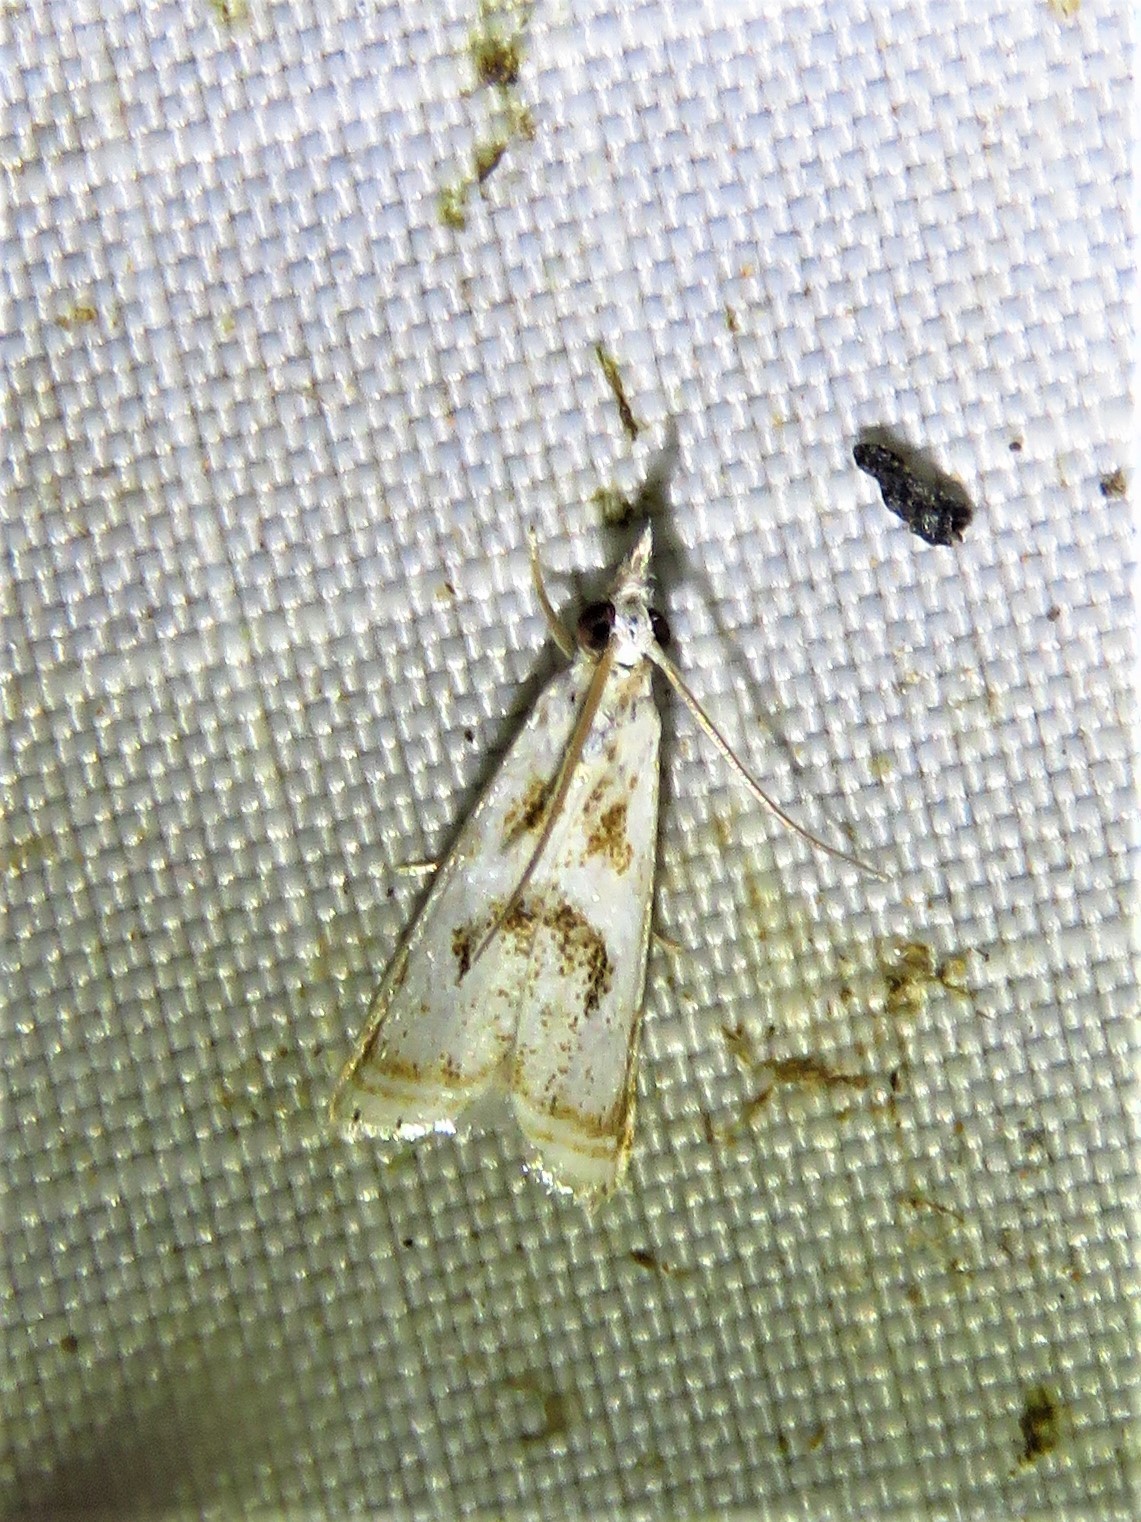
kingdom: Animalia
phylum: Arthropoda
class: Insecta
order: Lepidoptera
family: Crambidae
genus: Microcrambus
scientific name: Microcrambus elegans
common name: Elegant grass-veneer
